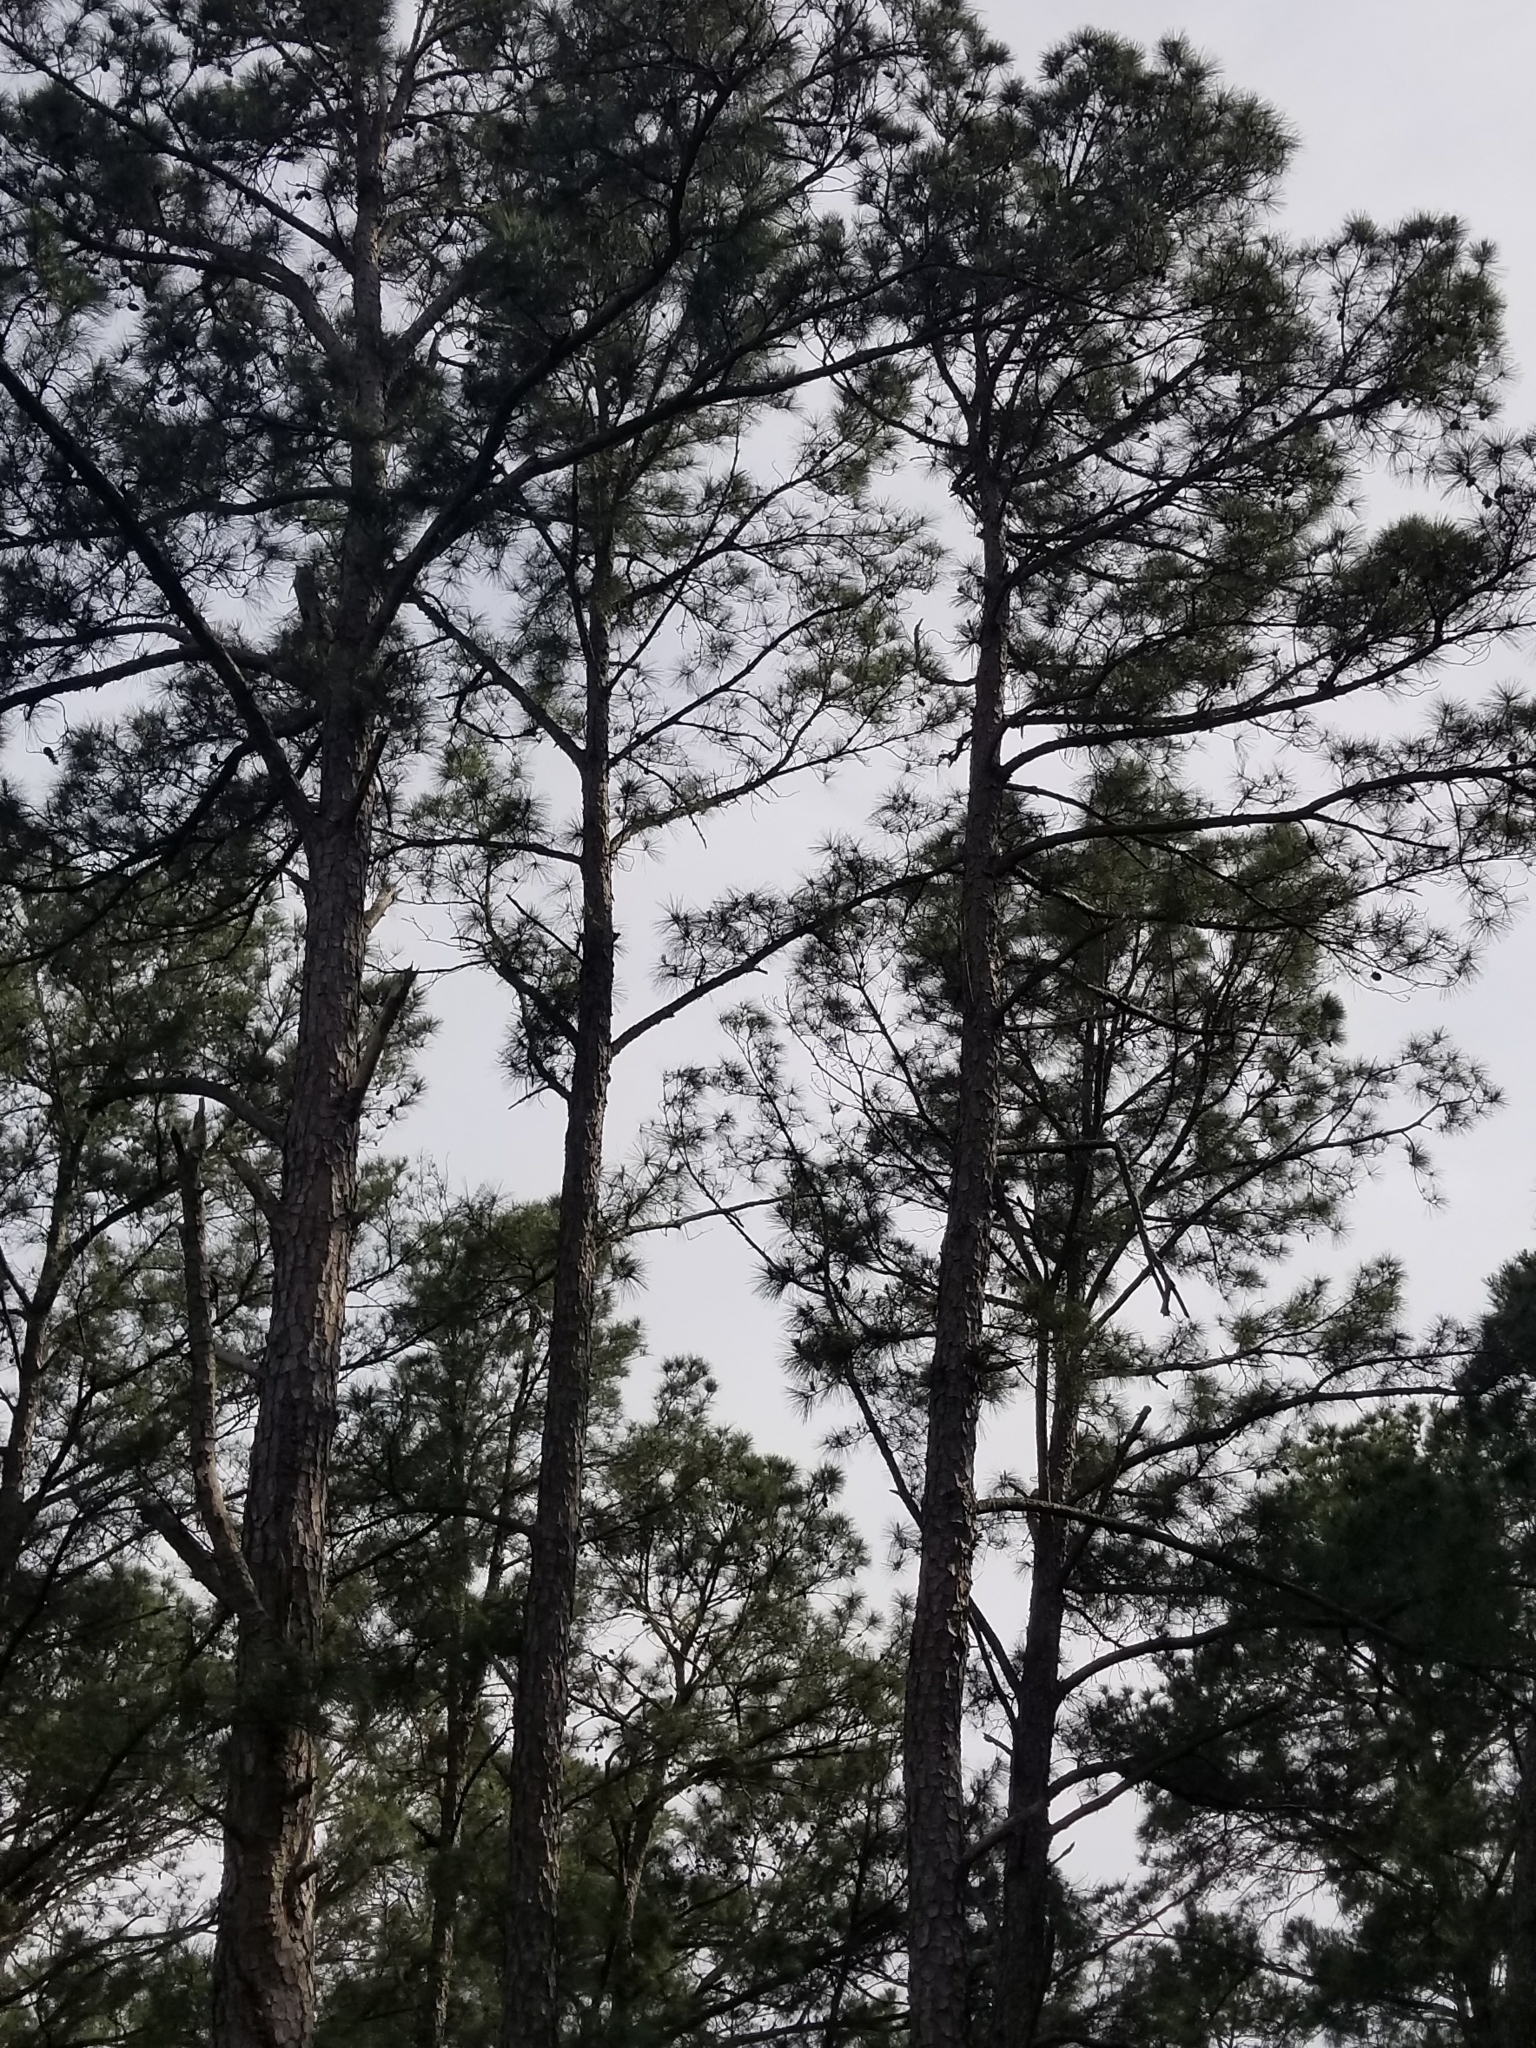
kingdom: Plantae
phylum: Tracheophyta
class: Pinopsida
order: Pinales
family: Pinaceae
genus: Pinus
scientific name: Pinus taeda
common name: Loblolly pine
